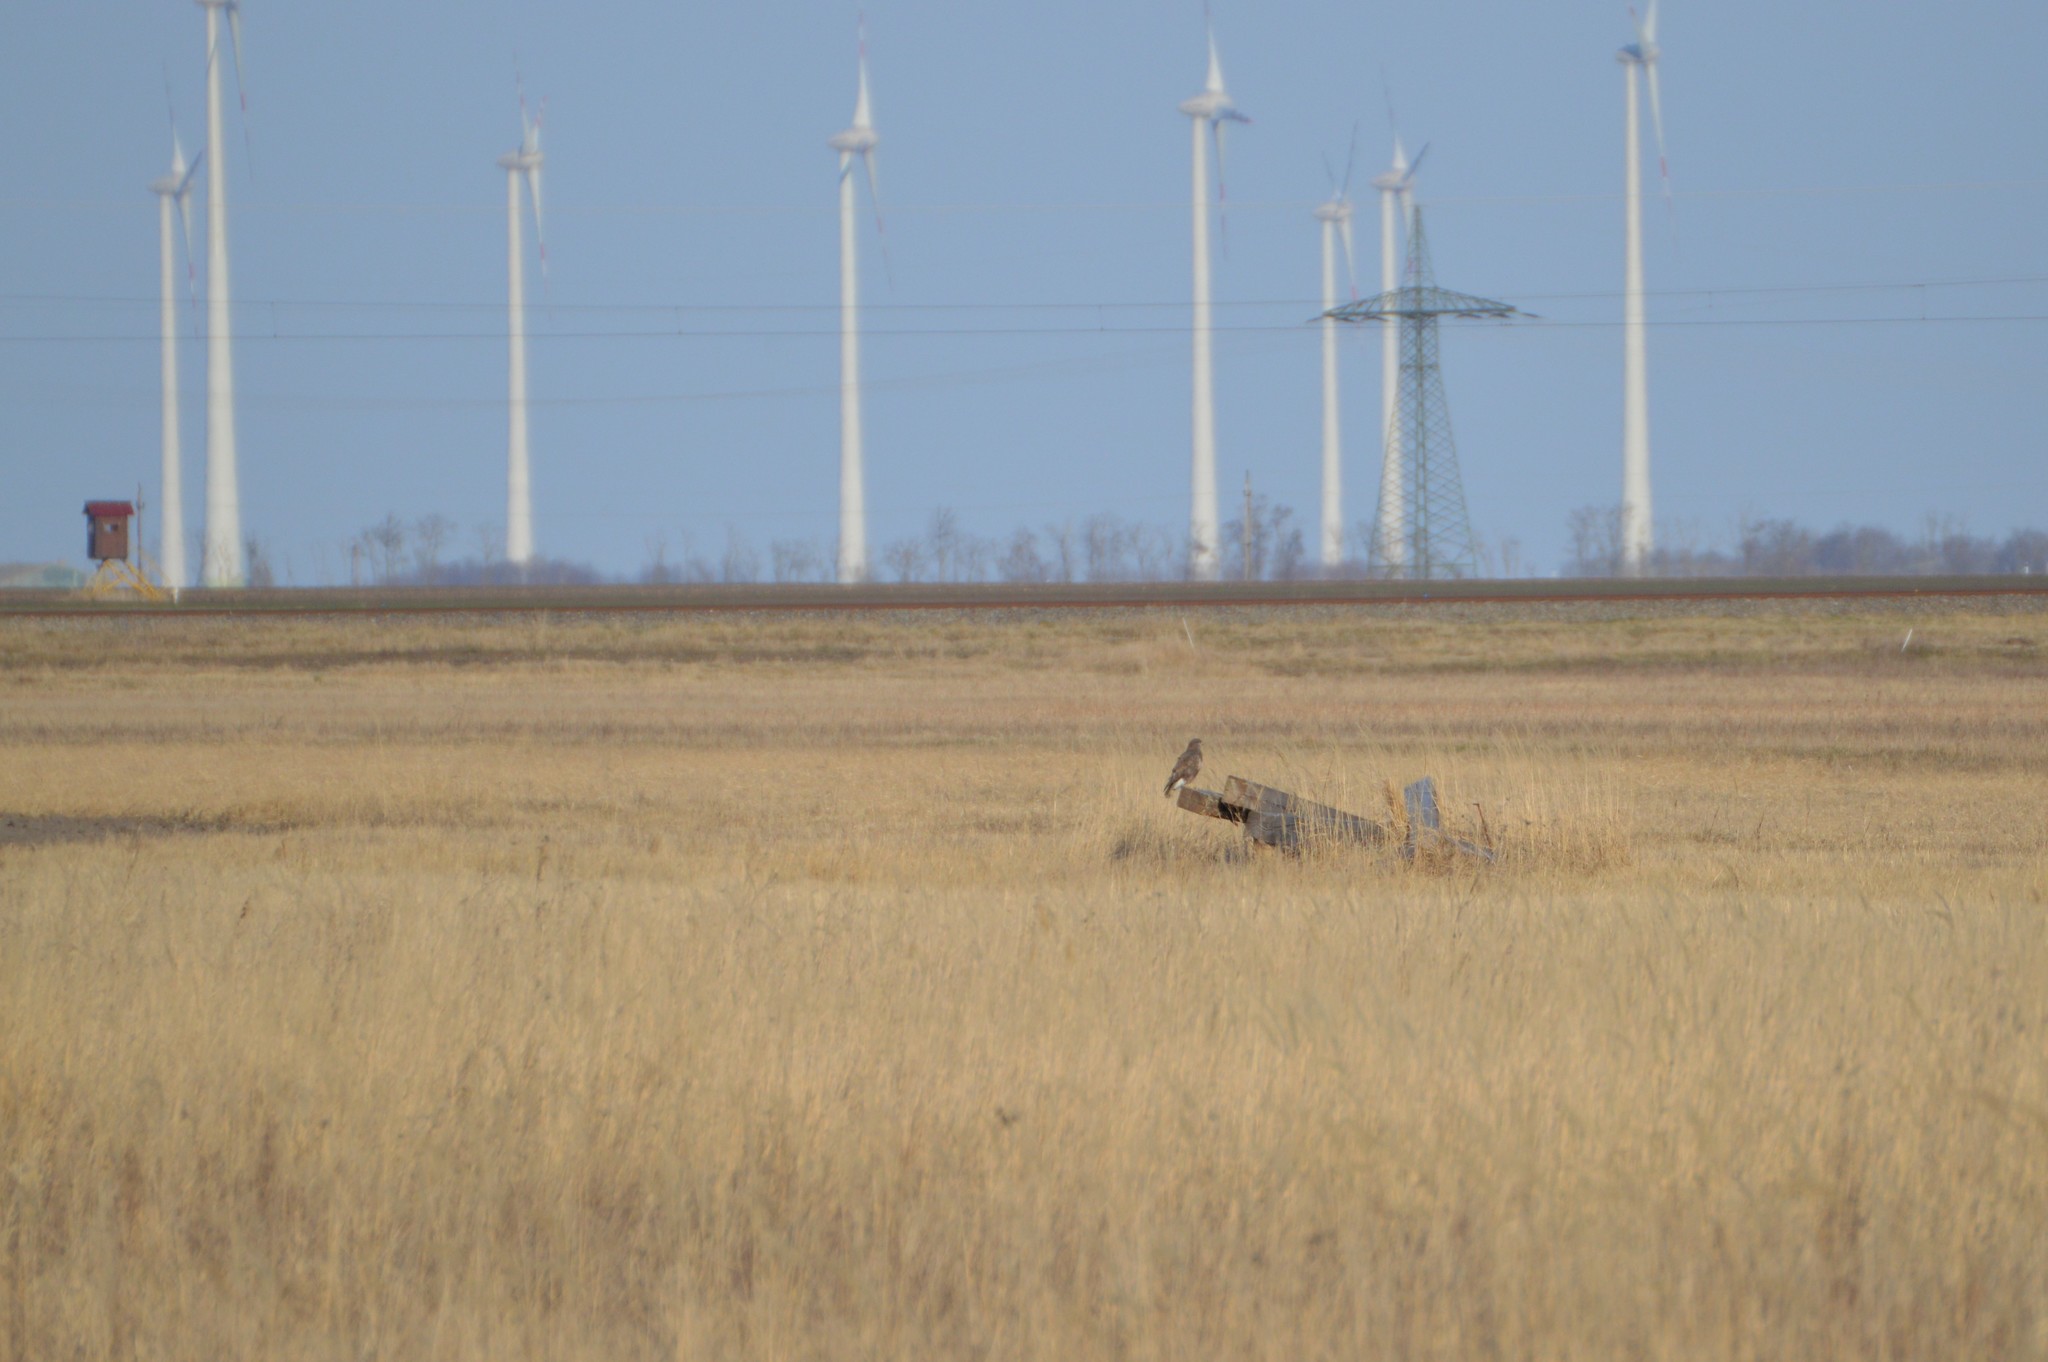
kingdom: Animalia
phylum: Chordata
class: Aves
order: Accipitriformes
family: Accipitridae
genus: Buteo
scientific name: Buteo buteo
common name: Common buzzard
